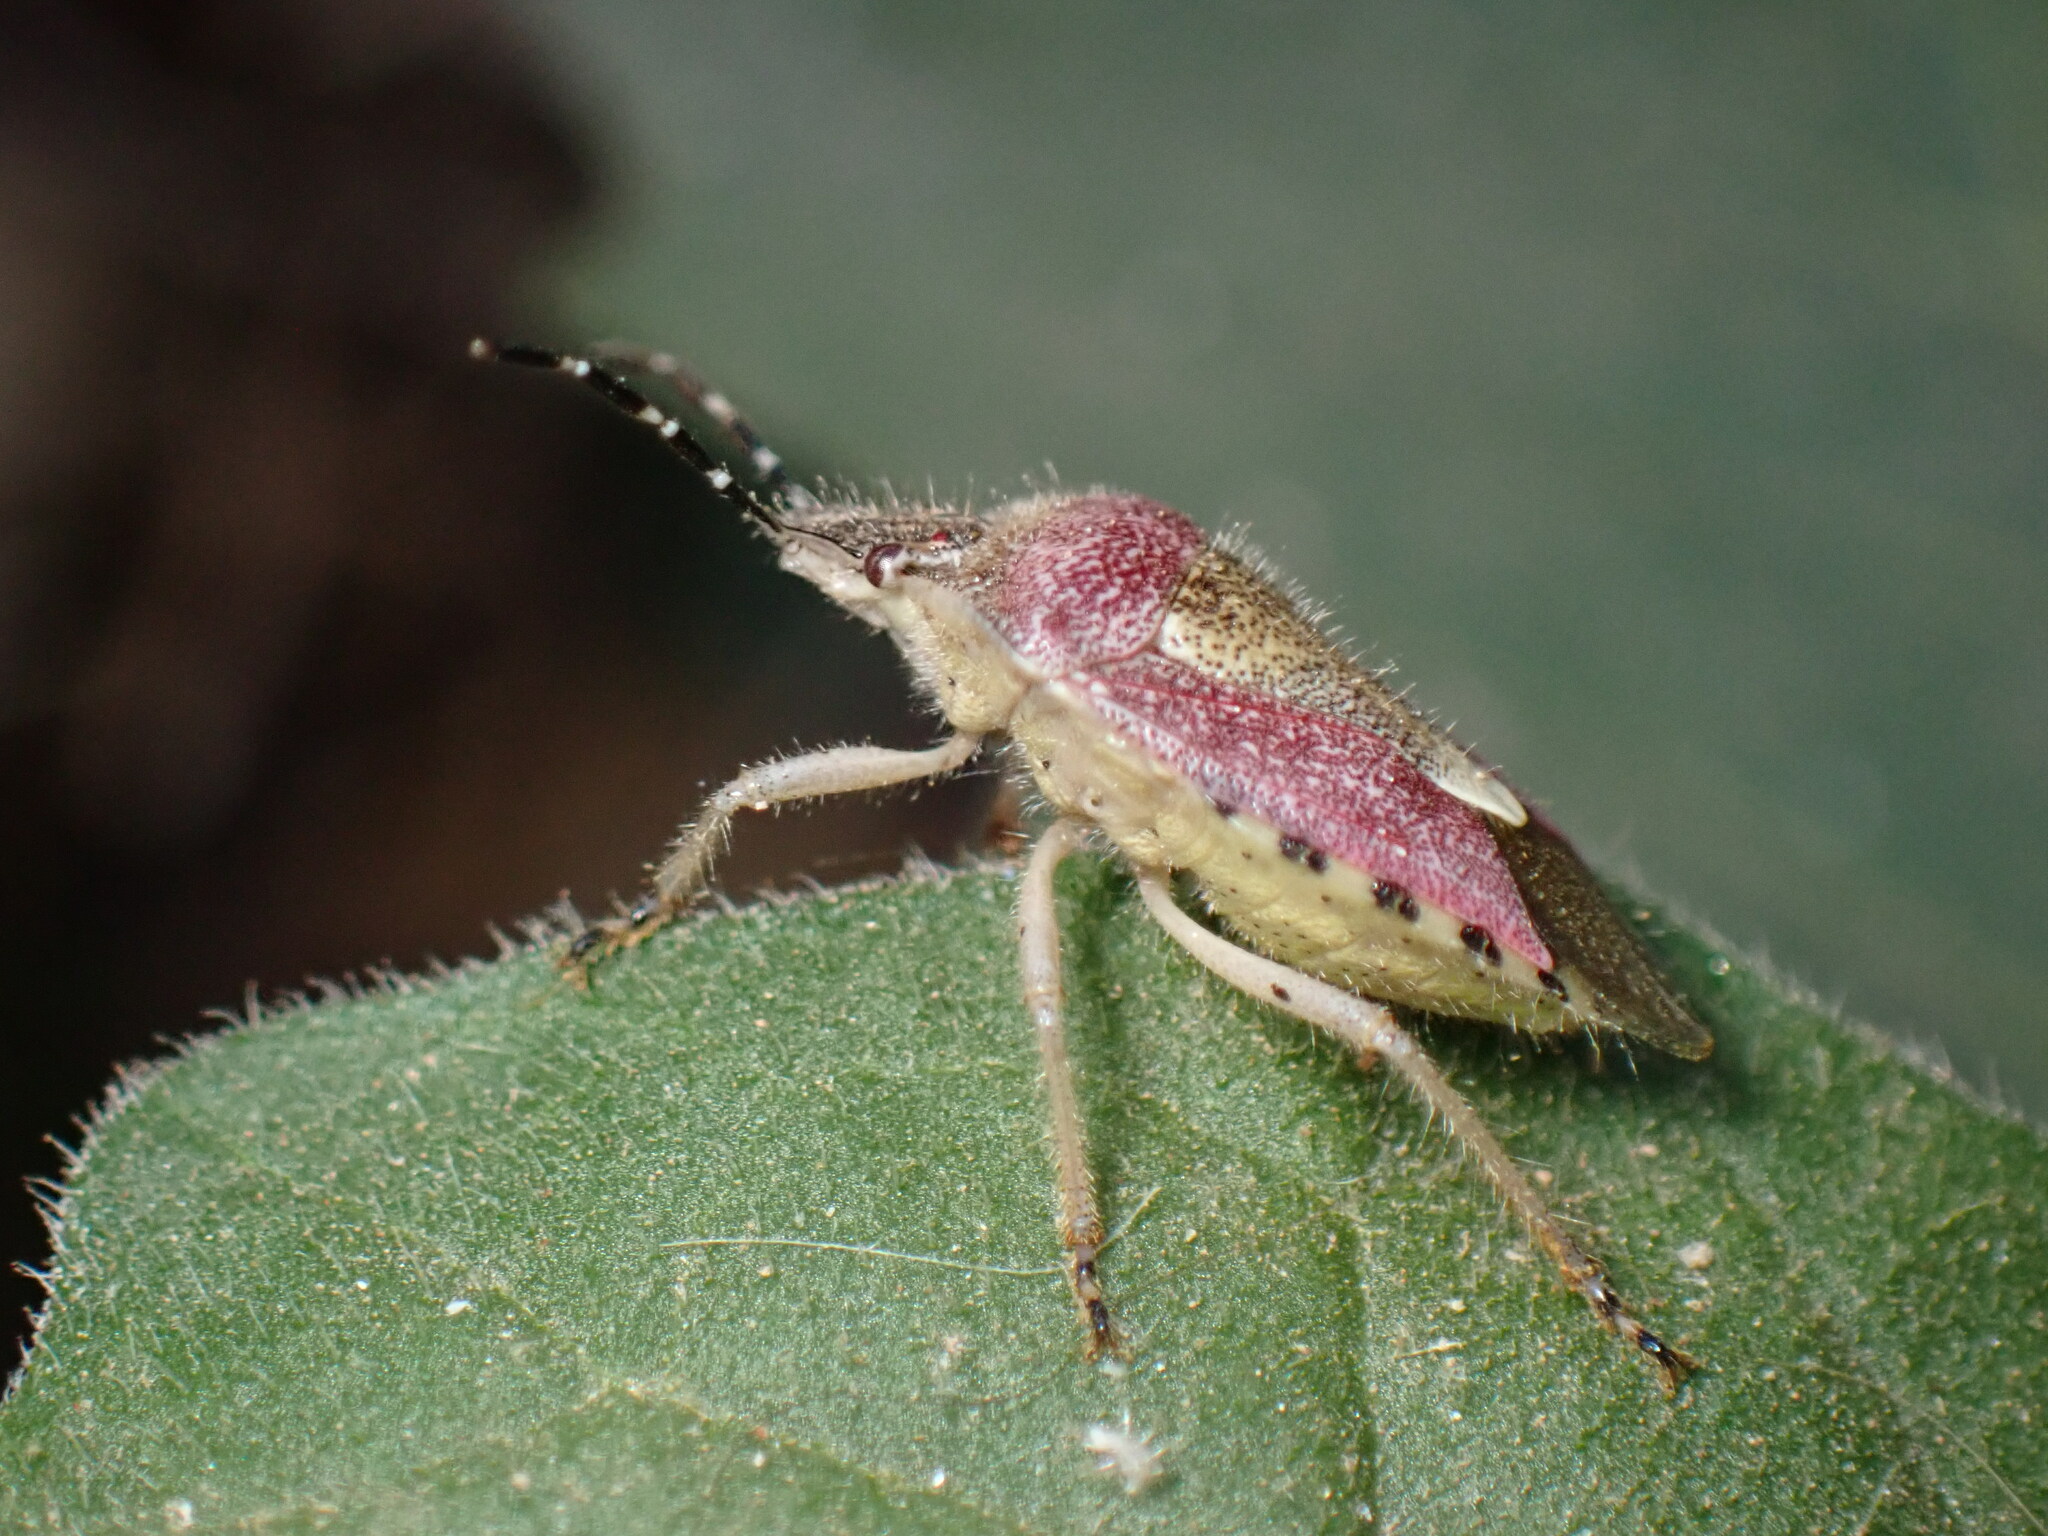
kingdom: Animalia
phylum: Arthropoda
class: Insecta
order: Hemiptera
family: Pentatomidae
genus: Dolycoris
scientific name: Dolycoris baccarum
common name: Sloe bug
